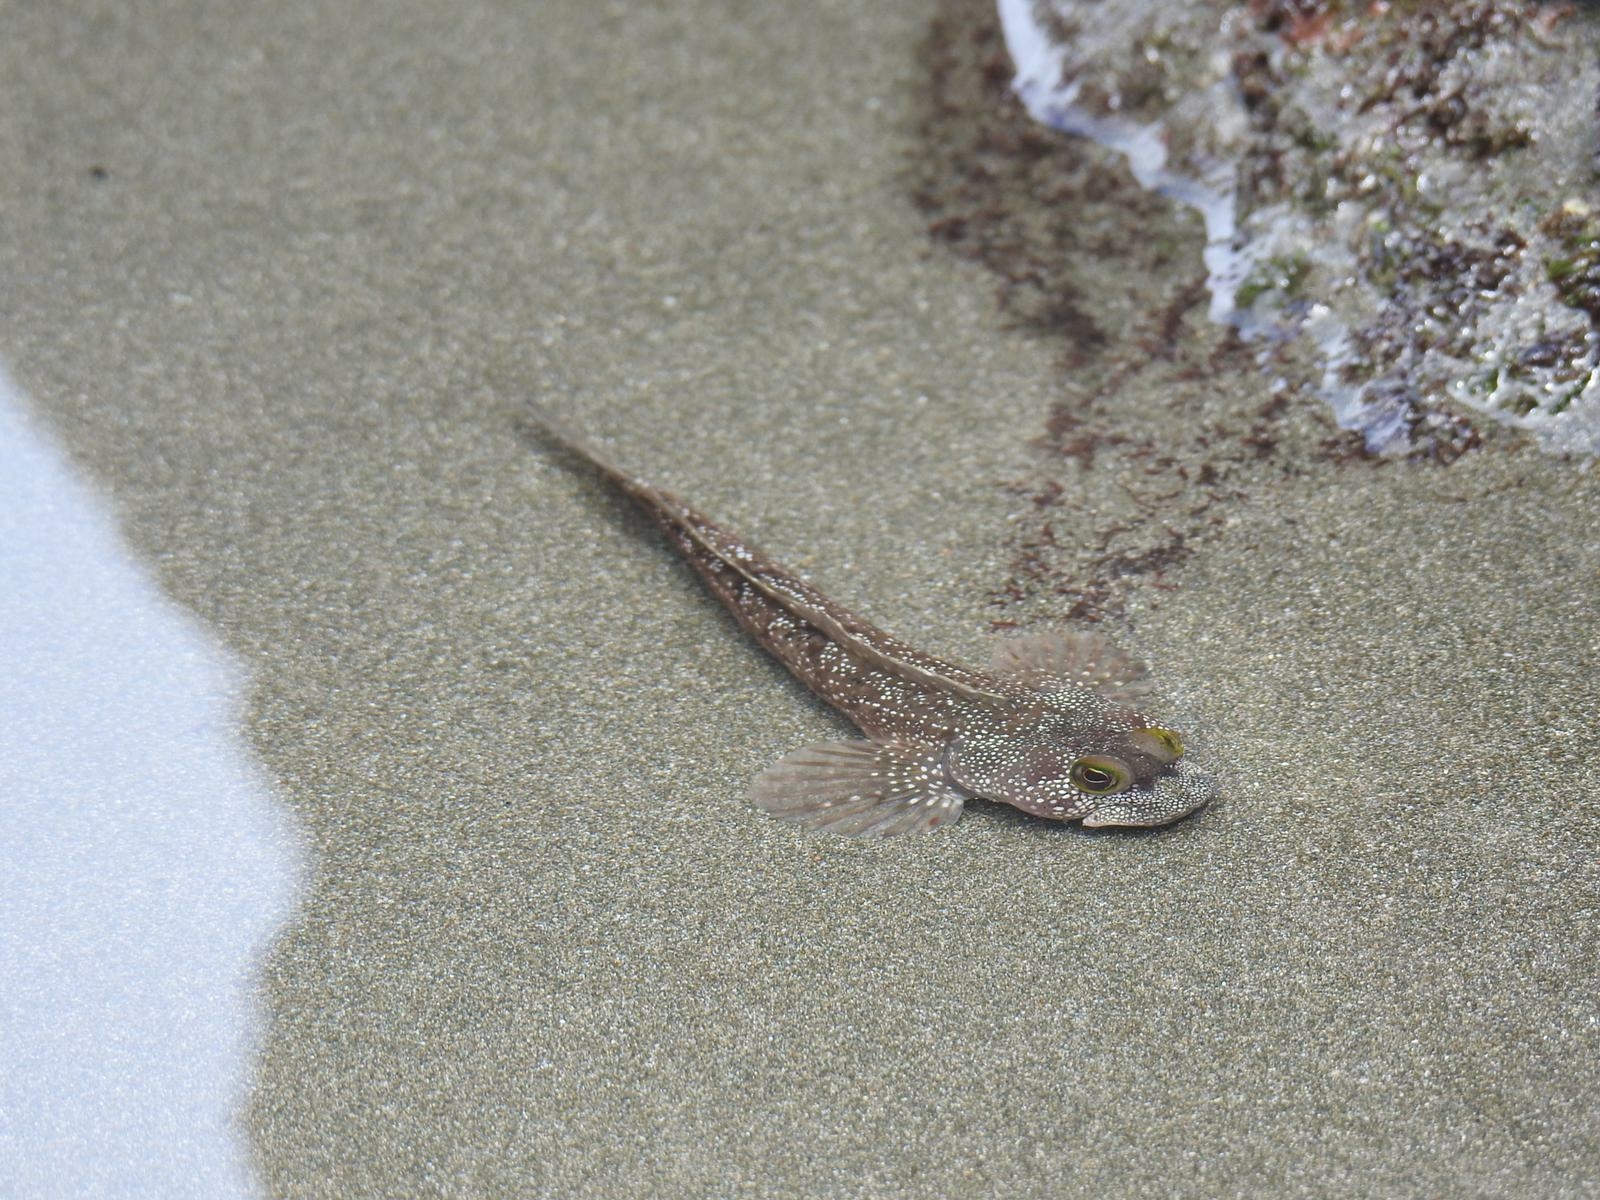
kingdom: Animalia
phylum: Chordata
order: Perciformes
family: Labrisomidae
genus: Dialommus
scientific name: Dialommus macrocephalus
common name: Foureye rockskipper
